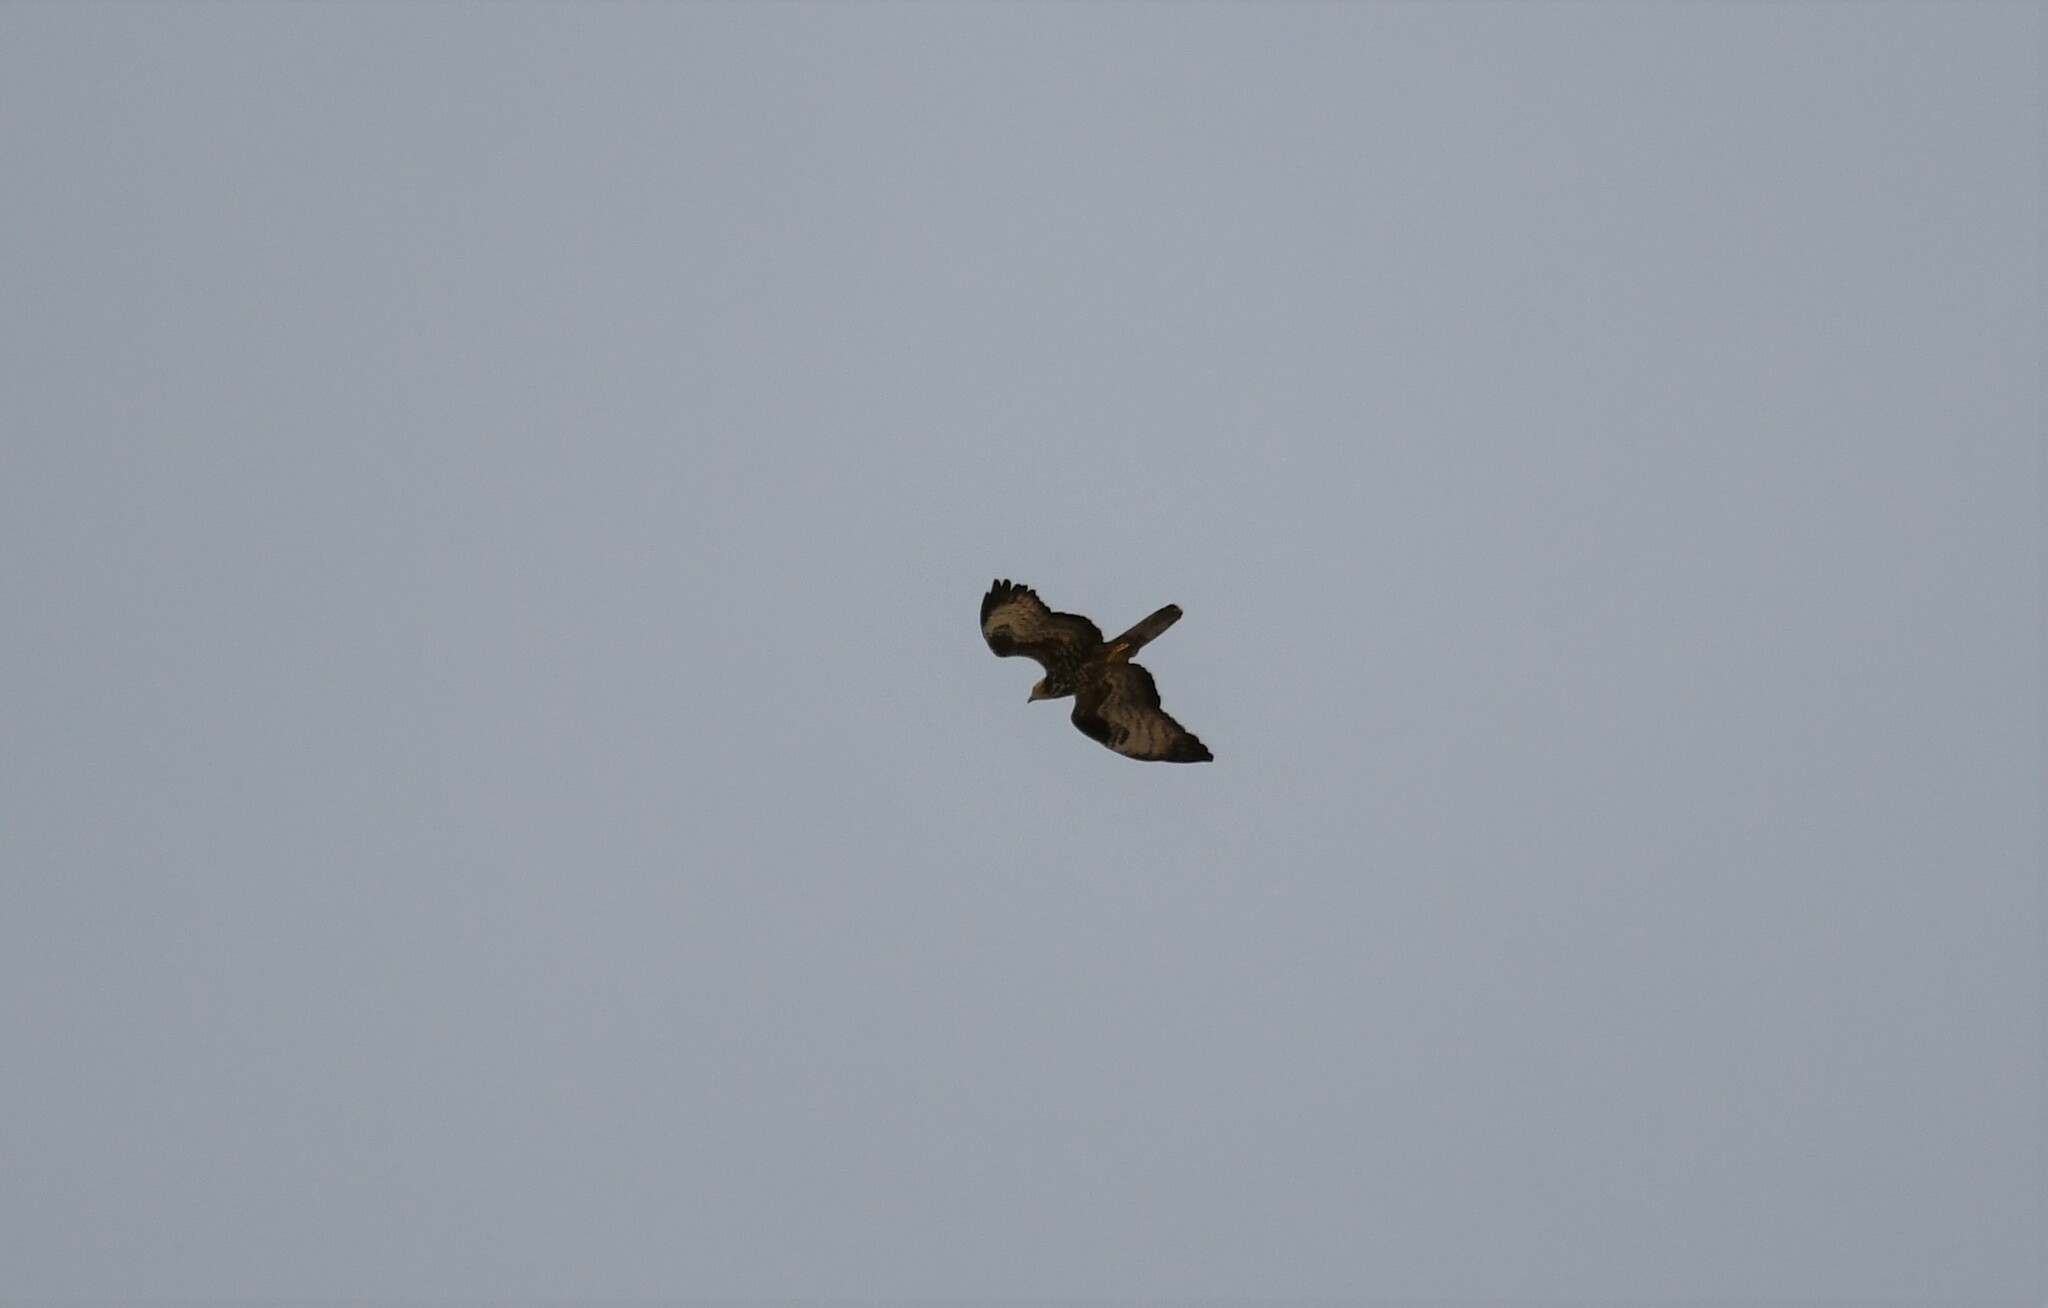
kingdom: Animalia
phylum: Chordata
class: Aves
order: Accipitriformes
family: Accipitridae
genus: Pernis
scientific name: Pernis apivorus
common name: European honey buzzard
